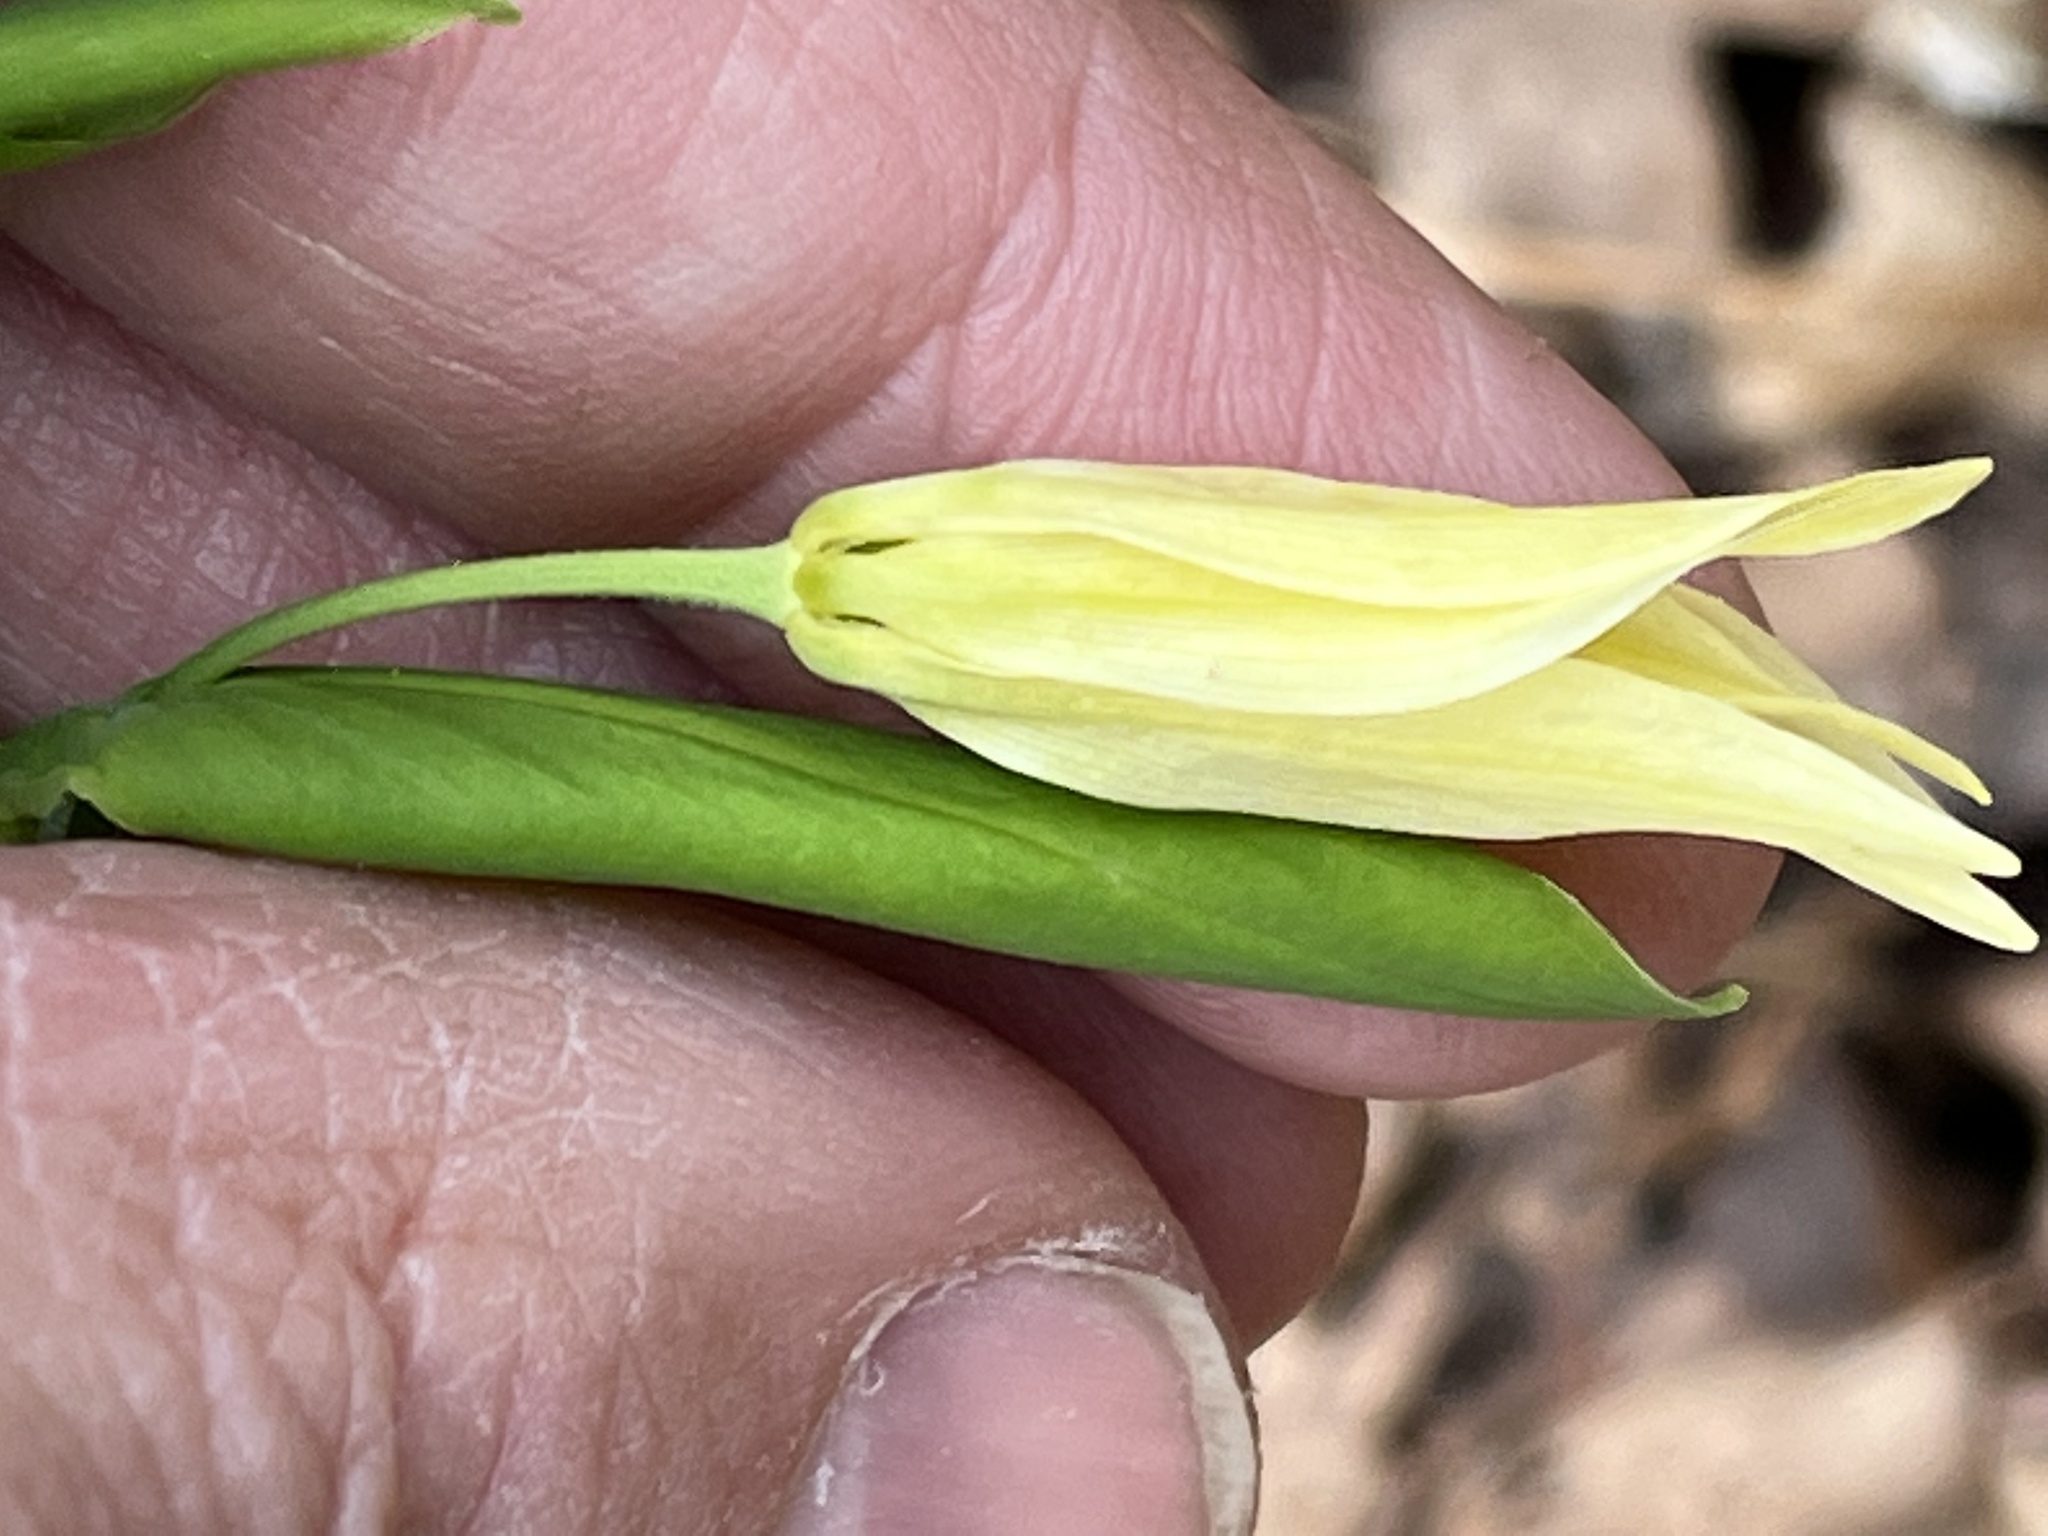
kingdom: Plantae
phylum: Tracheophyta
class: Liliopsida
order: Liliales
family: Colchicaceae
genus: Uvularia
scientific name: Uvularia grandiflora
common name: Bellwort
